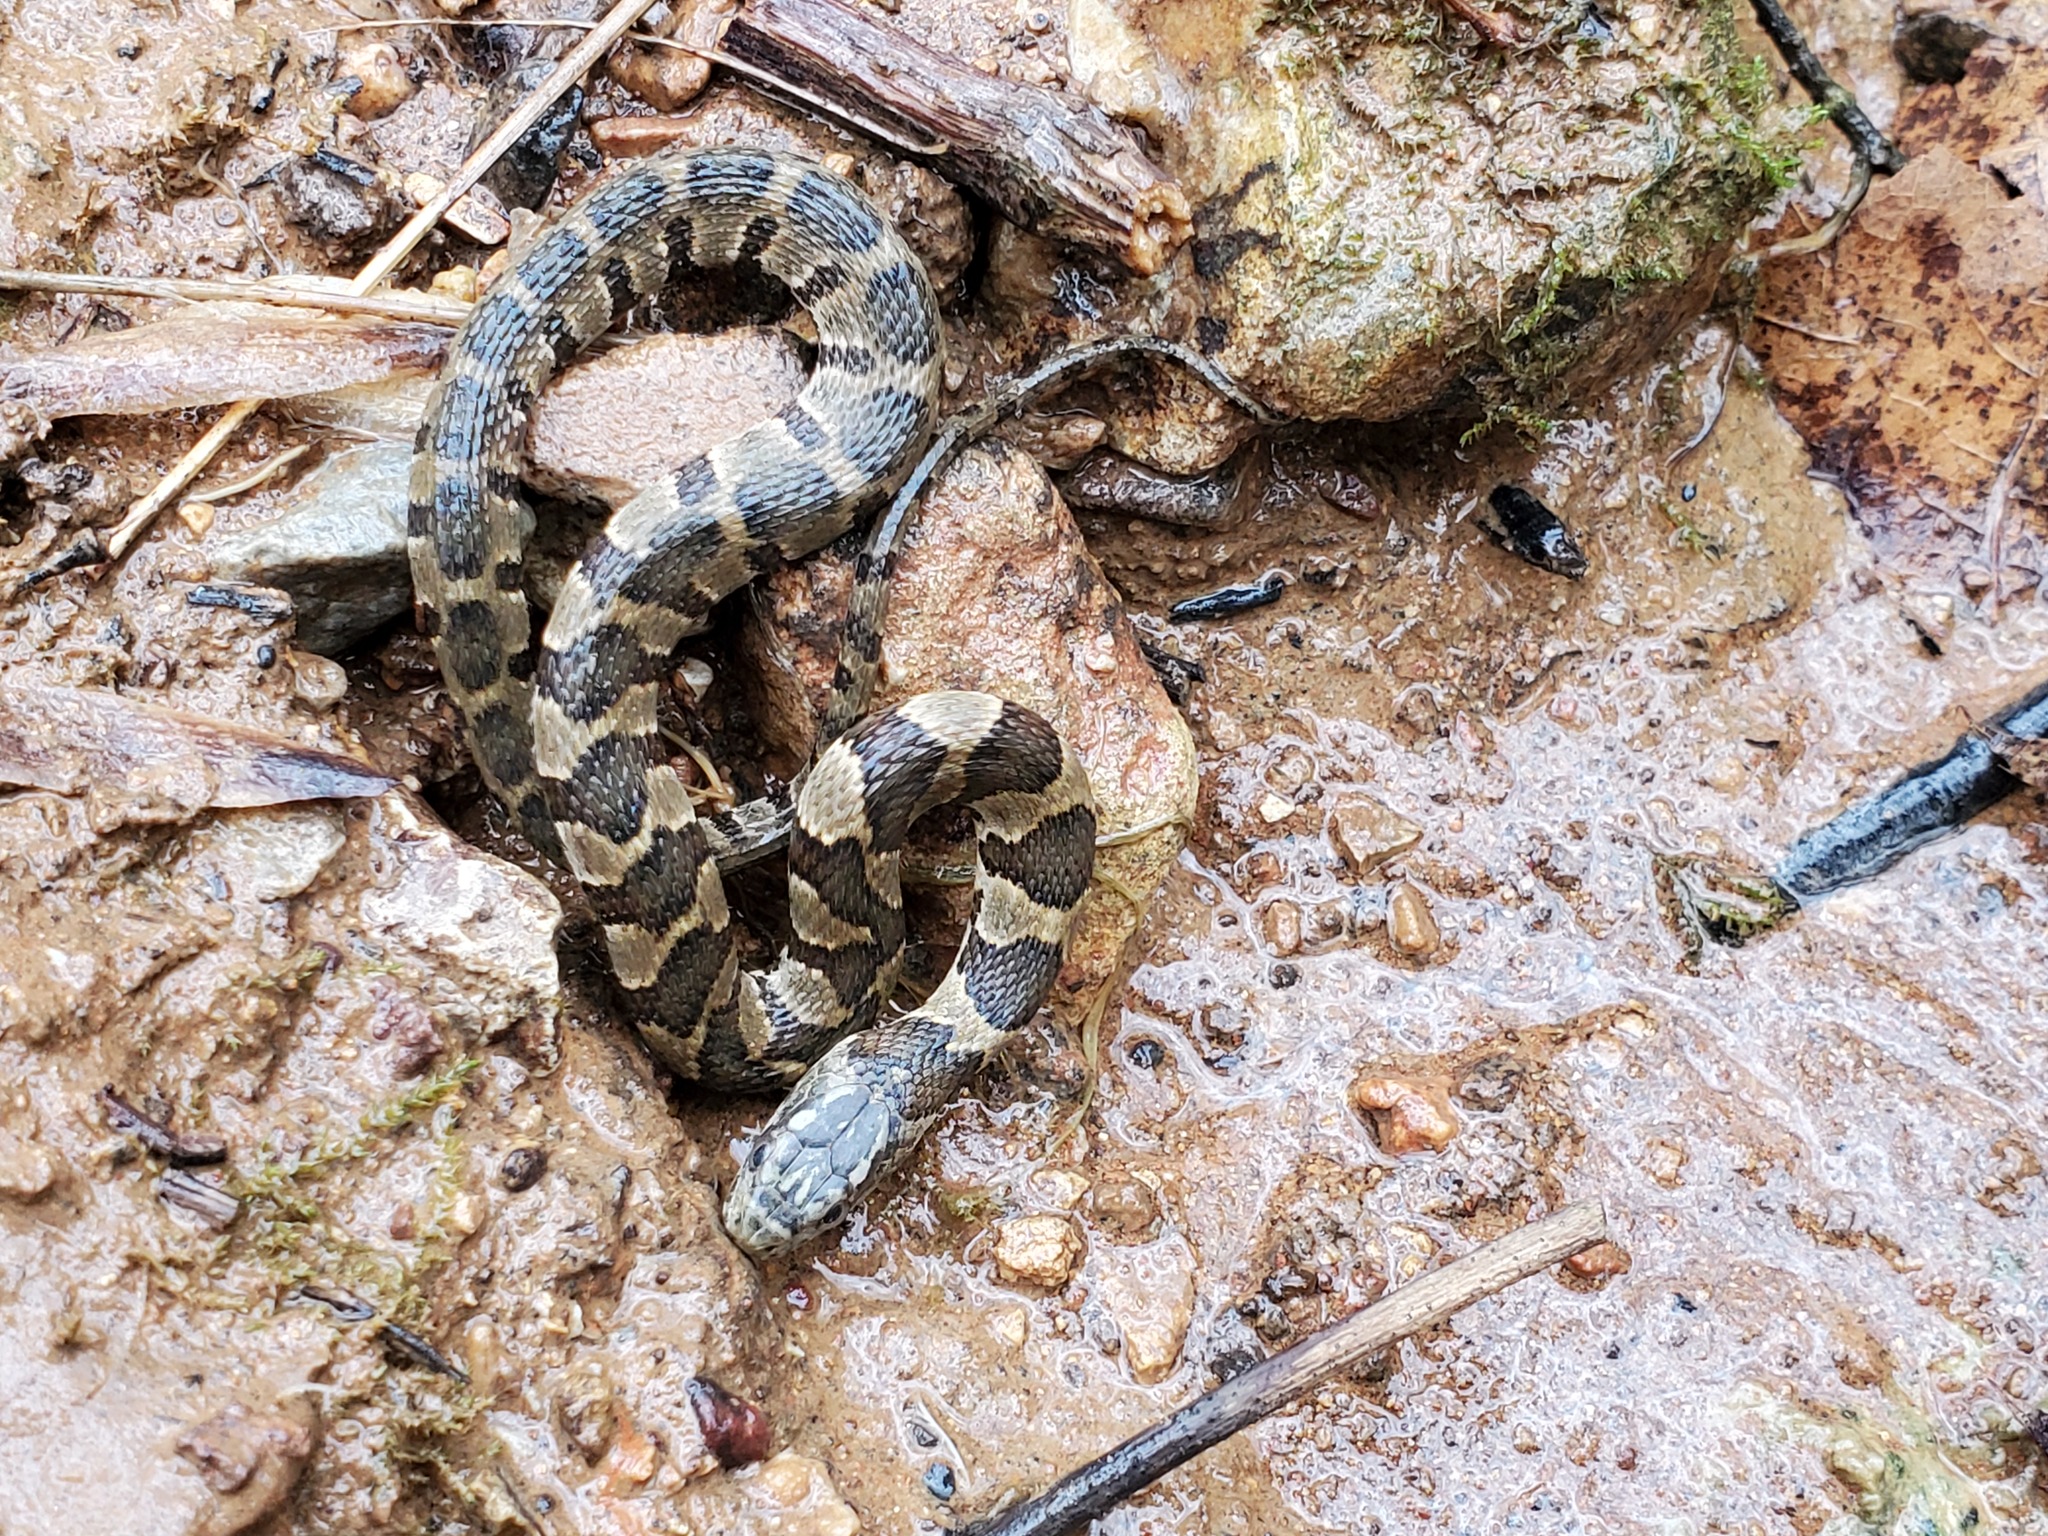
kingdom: Animalia
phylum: Chordata
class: Squamata
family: Colubridae
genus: Nerodia
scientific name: Nerodia sipedon
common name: Northern water snake
